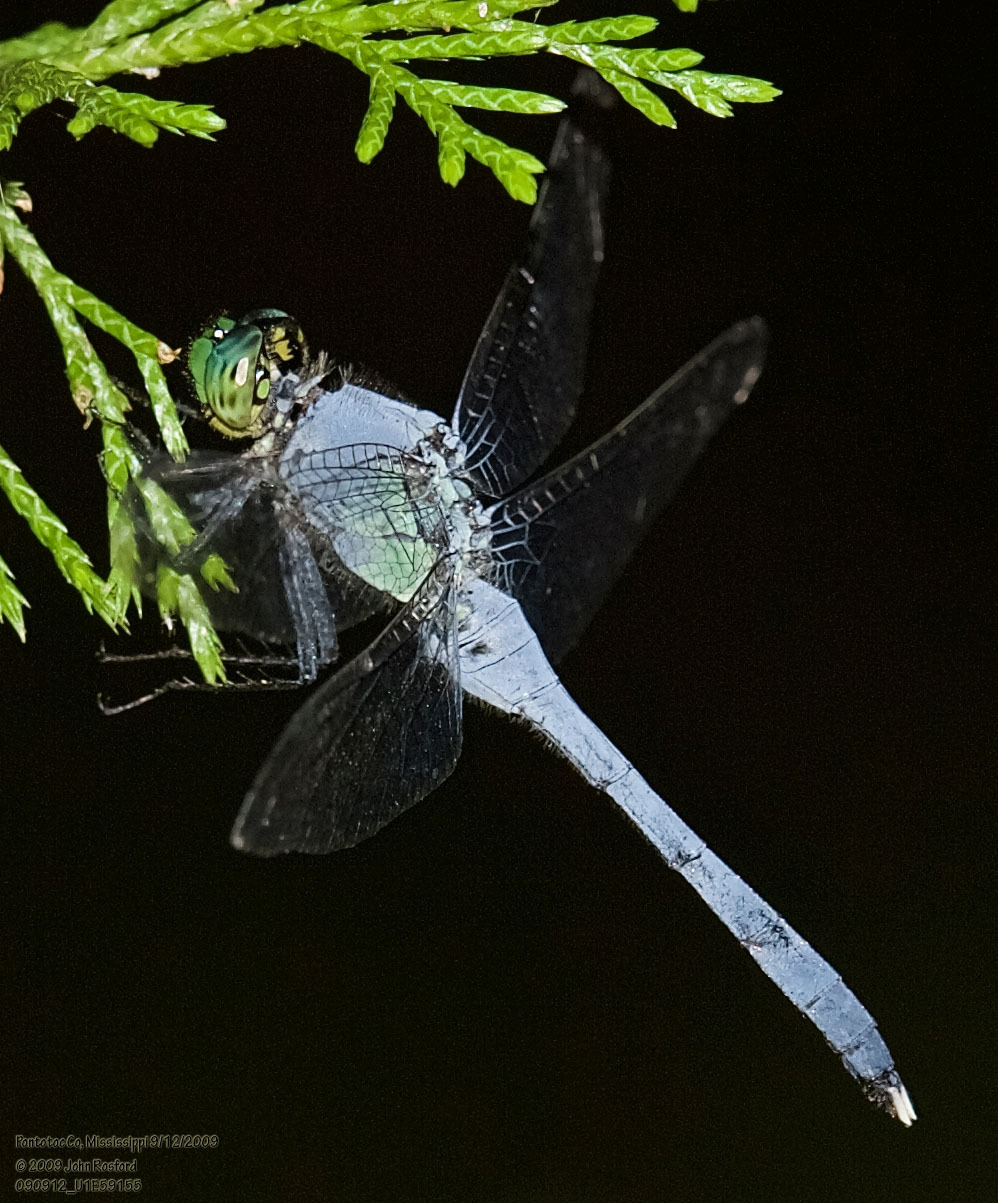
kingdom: Animalia
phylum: Arthropoda
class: Insecta
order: Odonata
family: Libellulidae
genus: Erythemis
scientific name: Erythemis simplicicollis
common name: Eastern pondhawk
